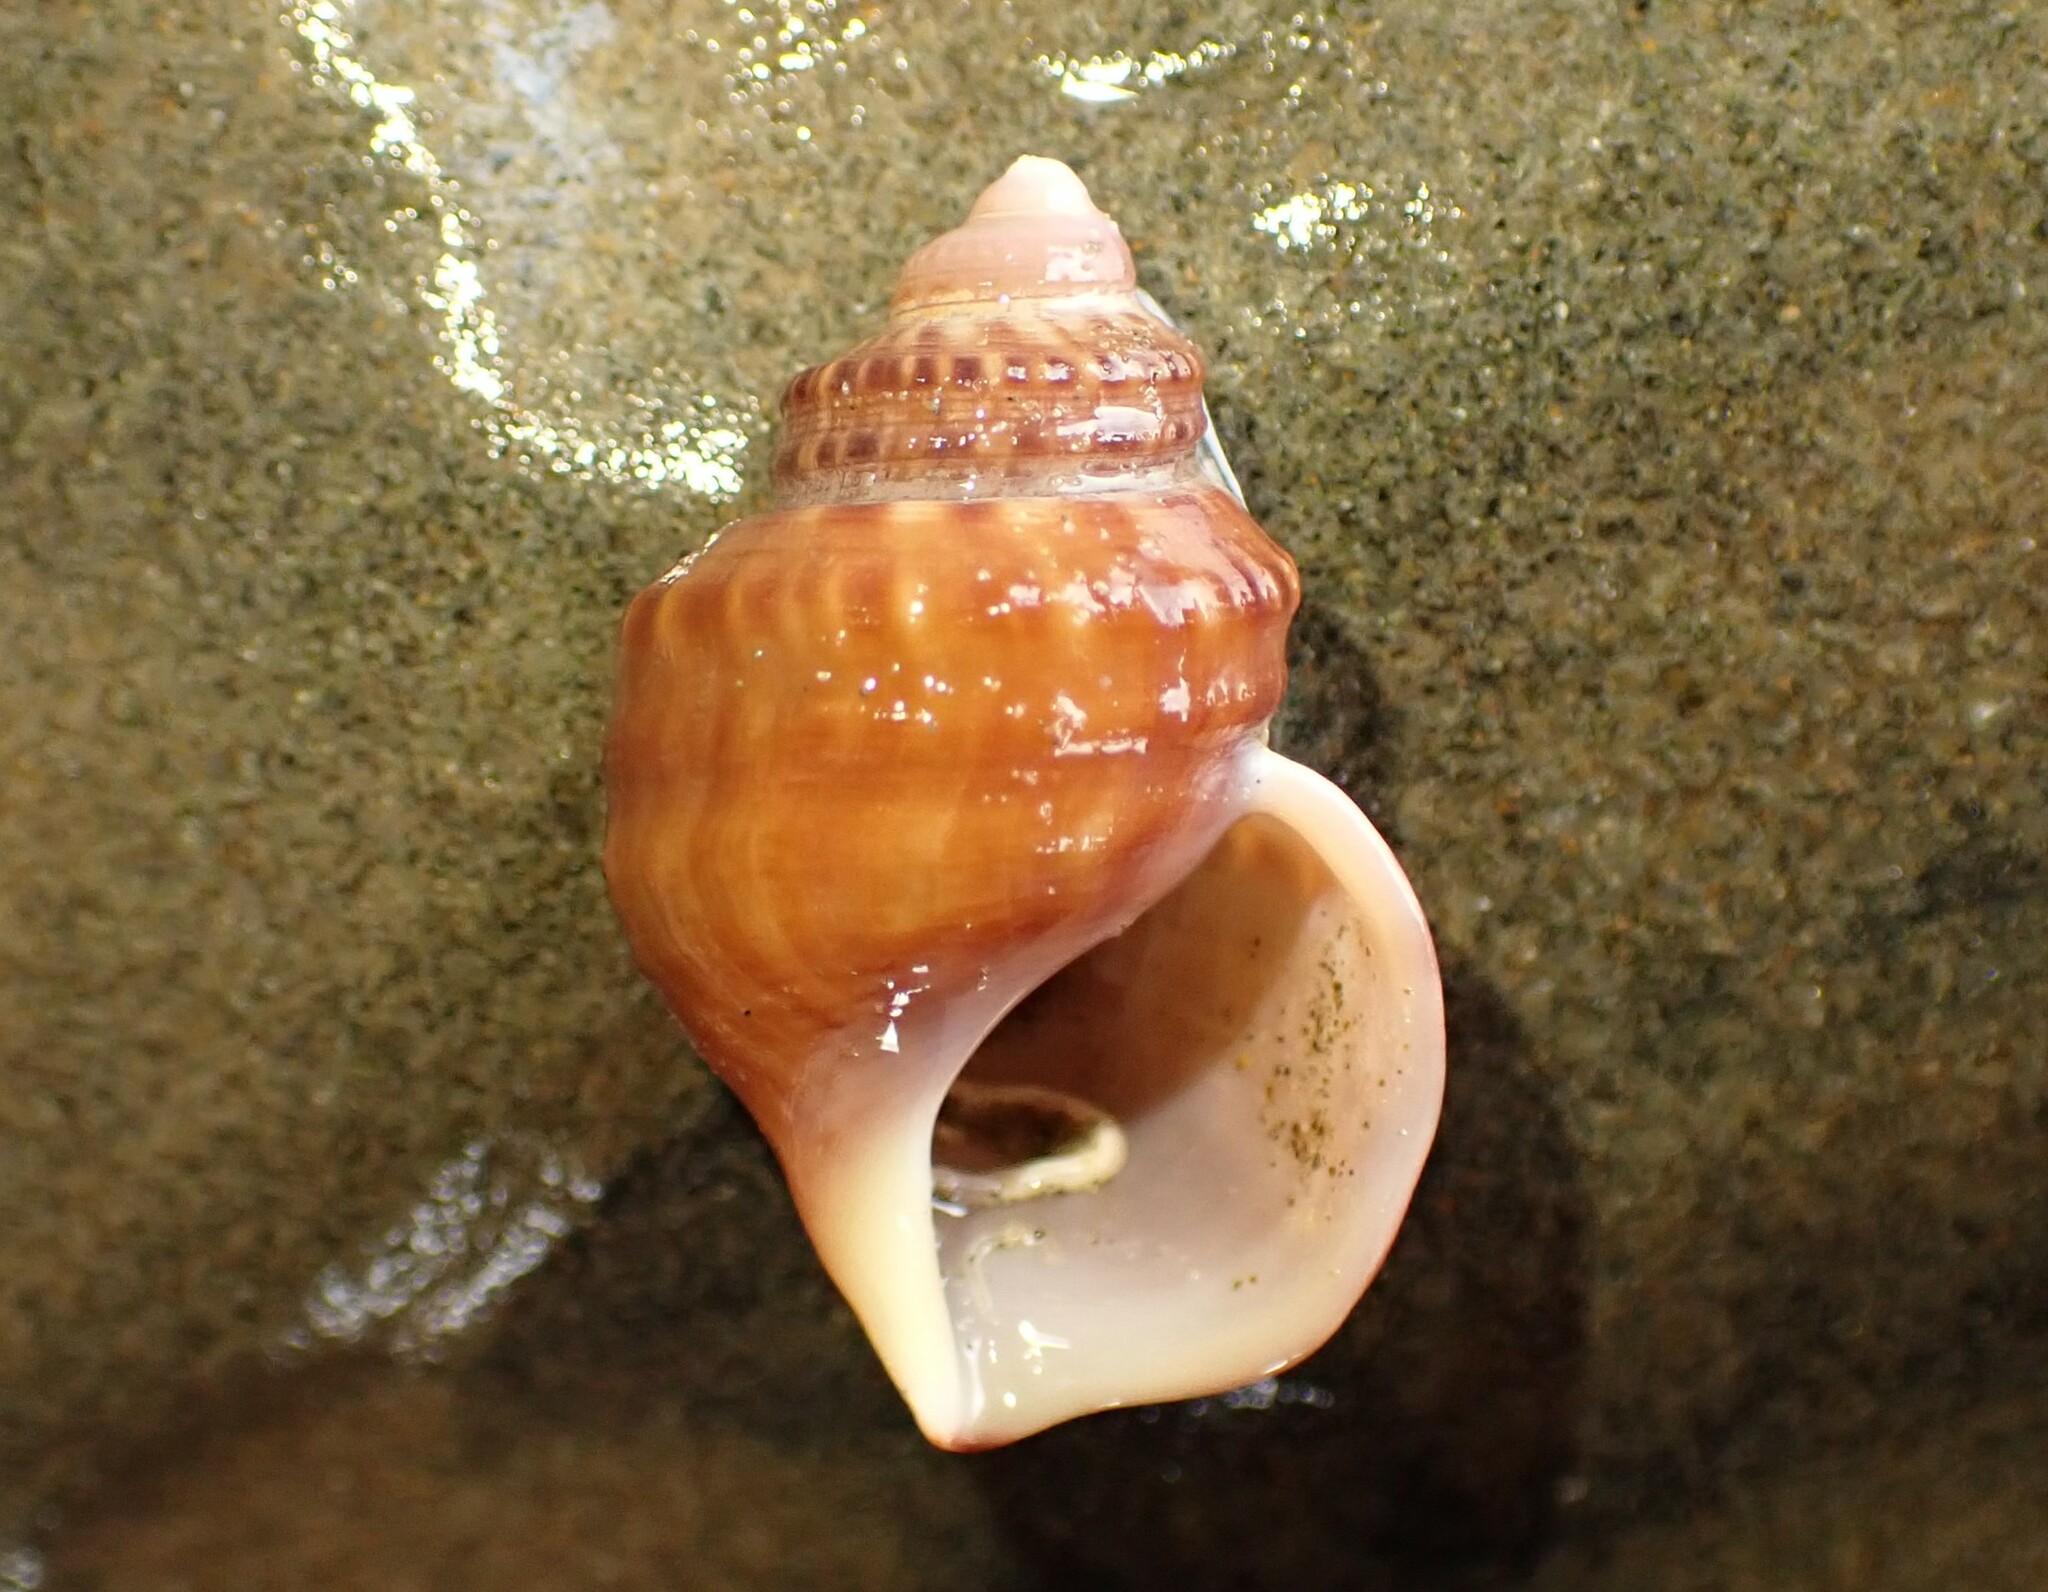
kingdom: Animalia
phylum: Mollusca
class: Gastropoda
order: Littorinimorpha
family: Struthiolariidae
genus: Pelicaria
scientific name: Pelicaria vermis
